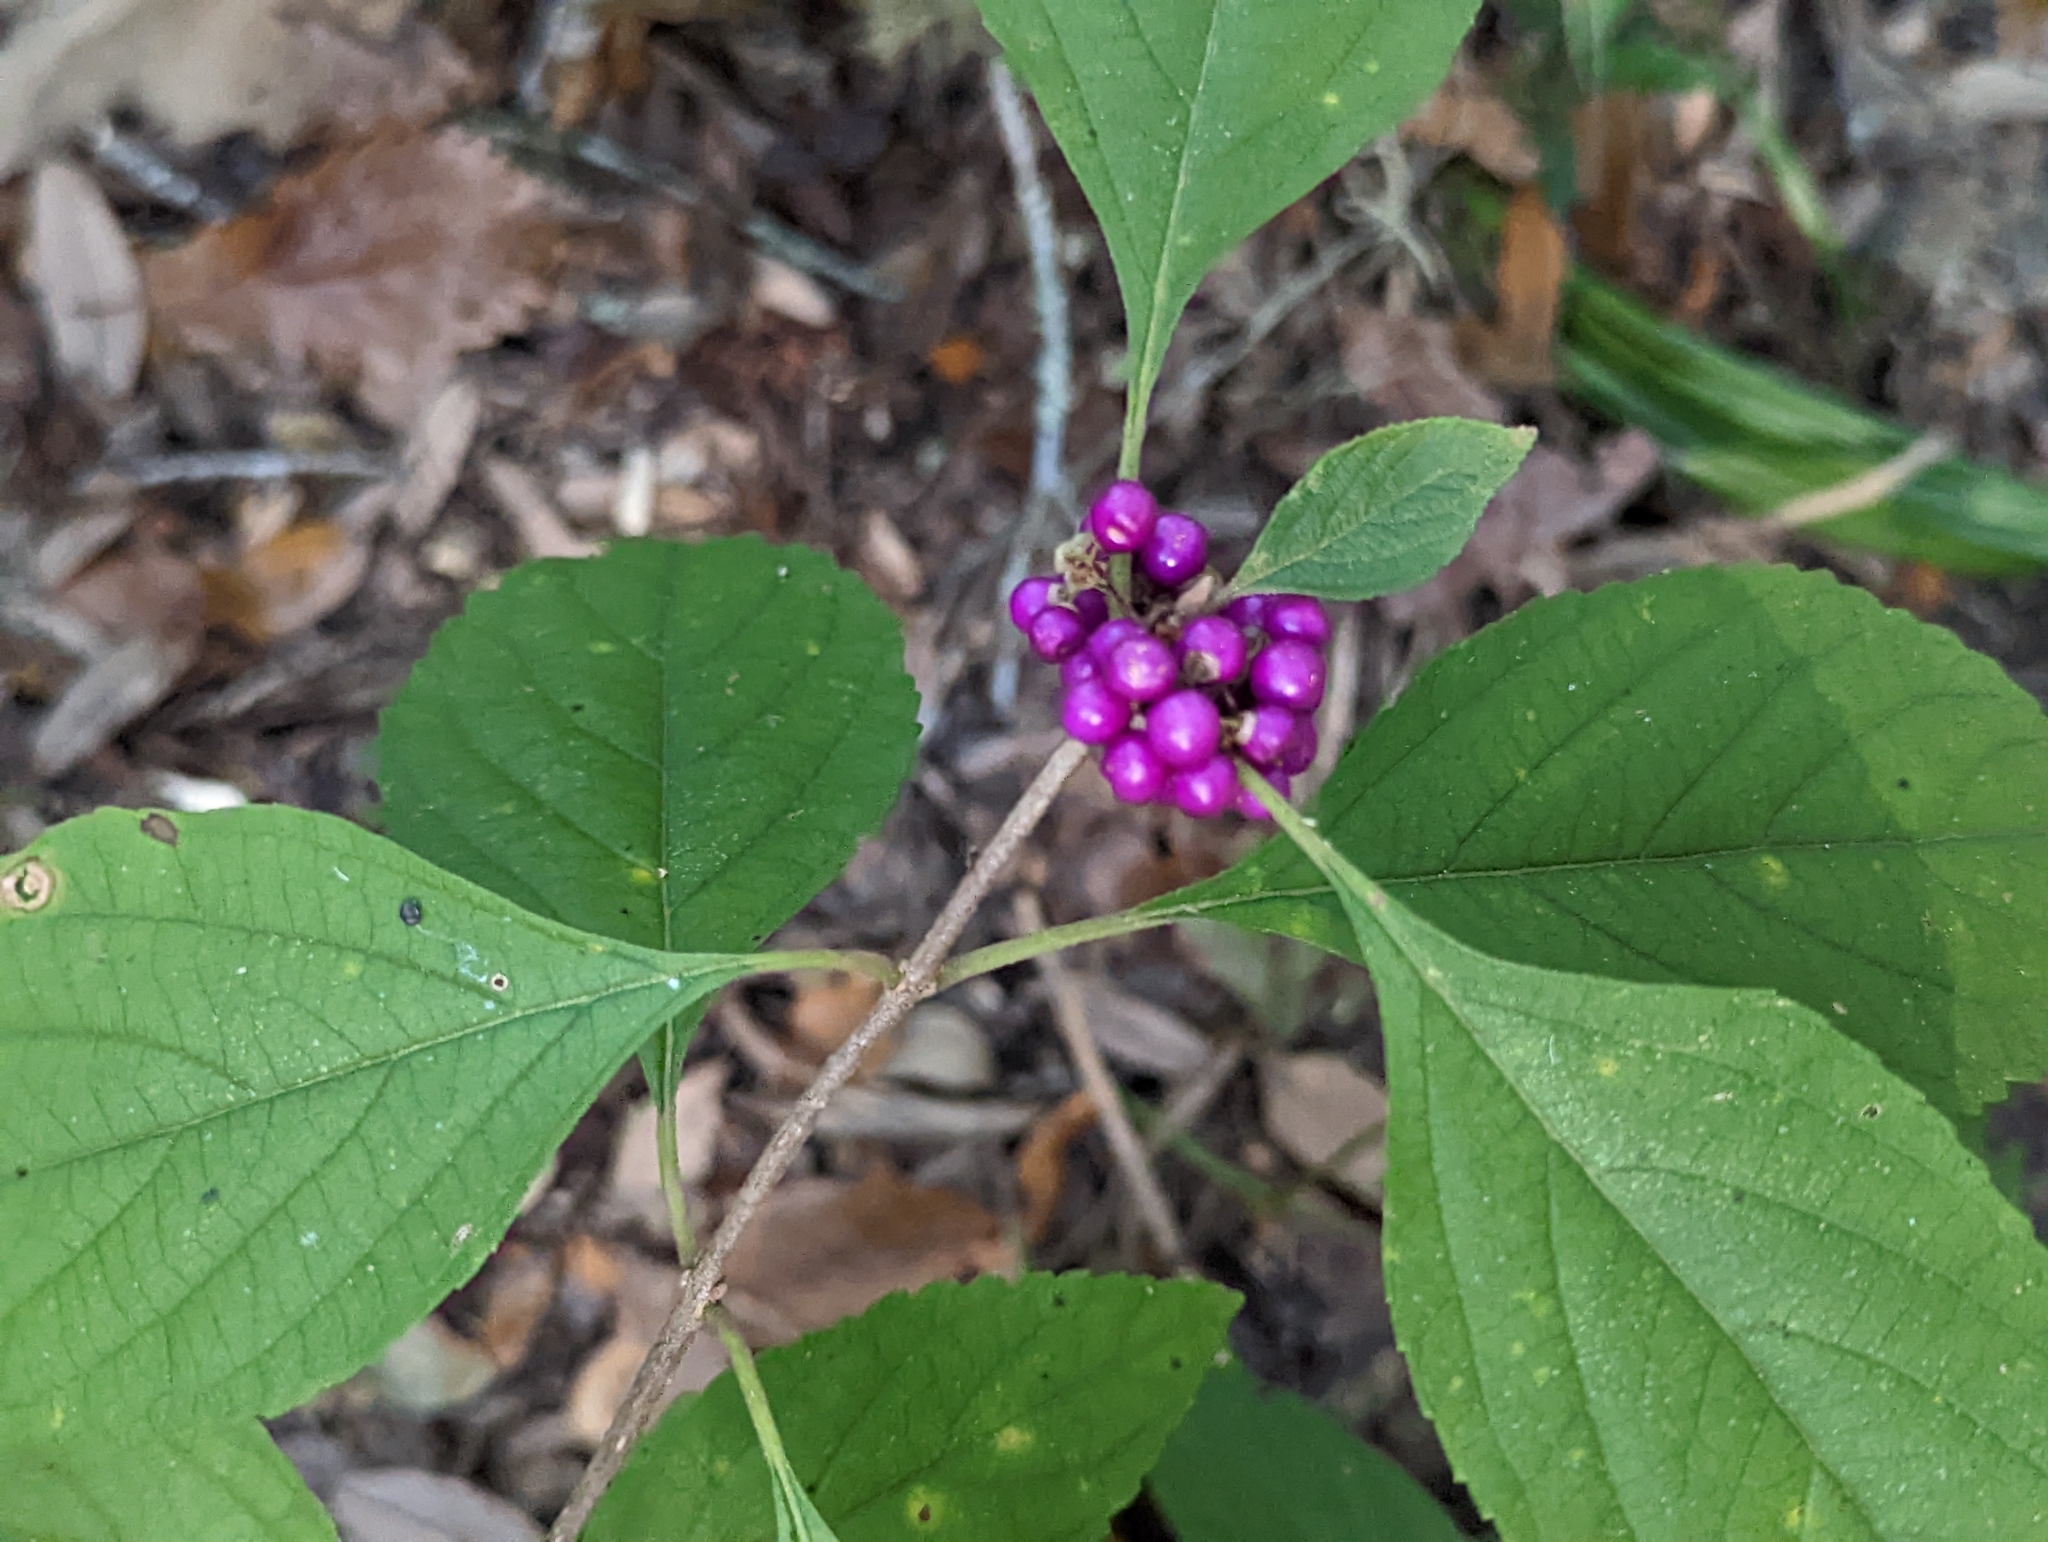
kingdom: Plantae
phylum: Tracheophyta
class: Magnoliopsida
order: Lamiales
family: Lamiaceae
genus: Callicarpa
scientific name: Callicarpa americana
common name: American beautyberry
